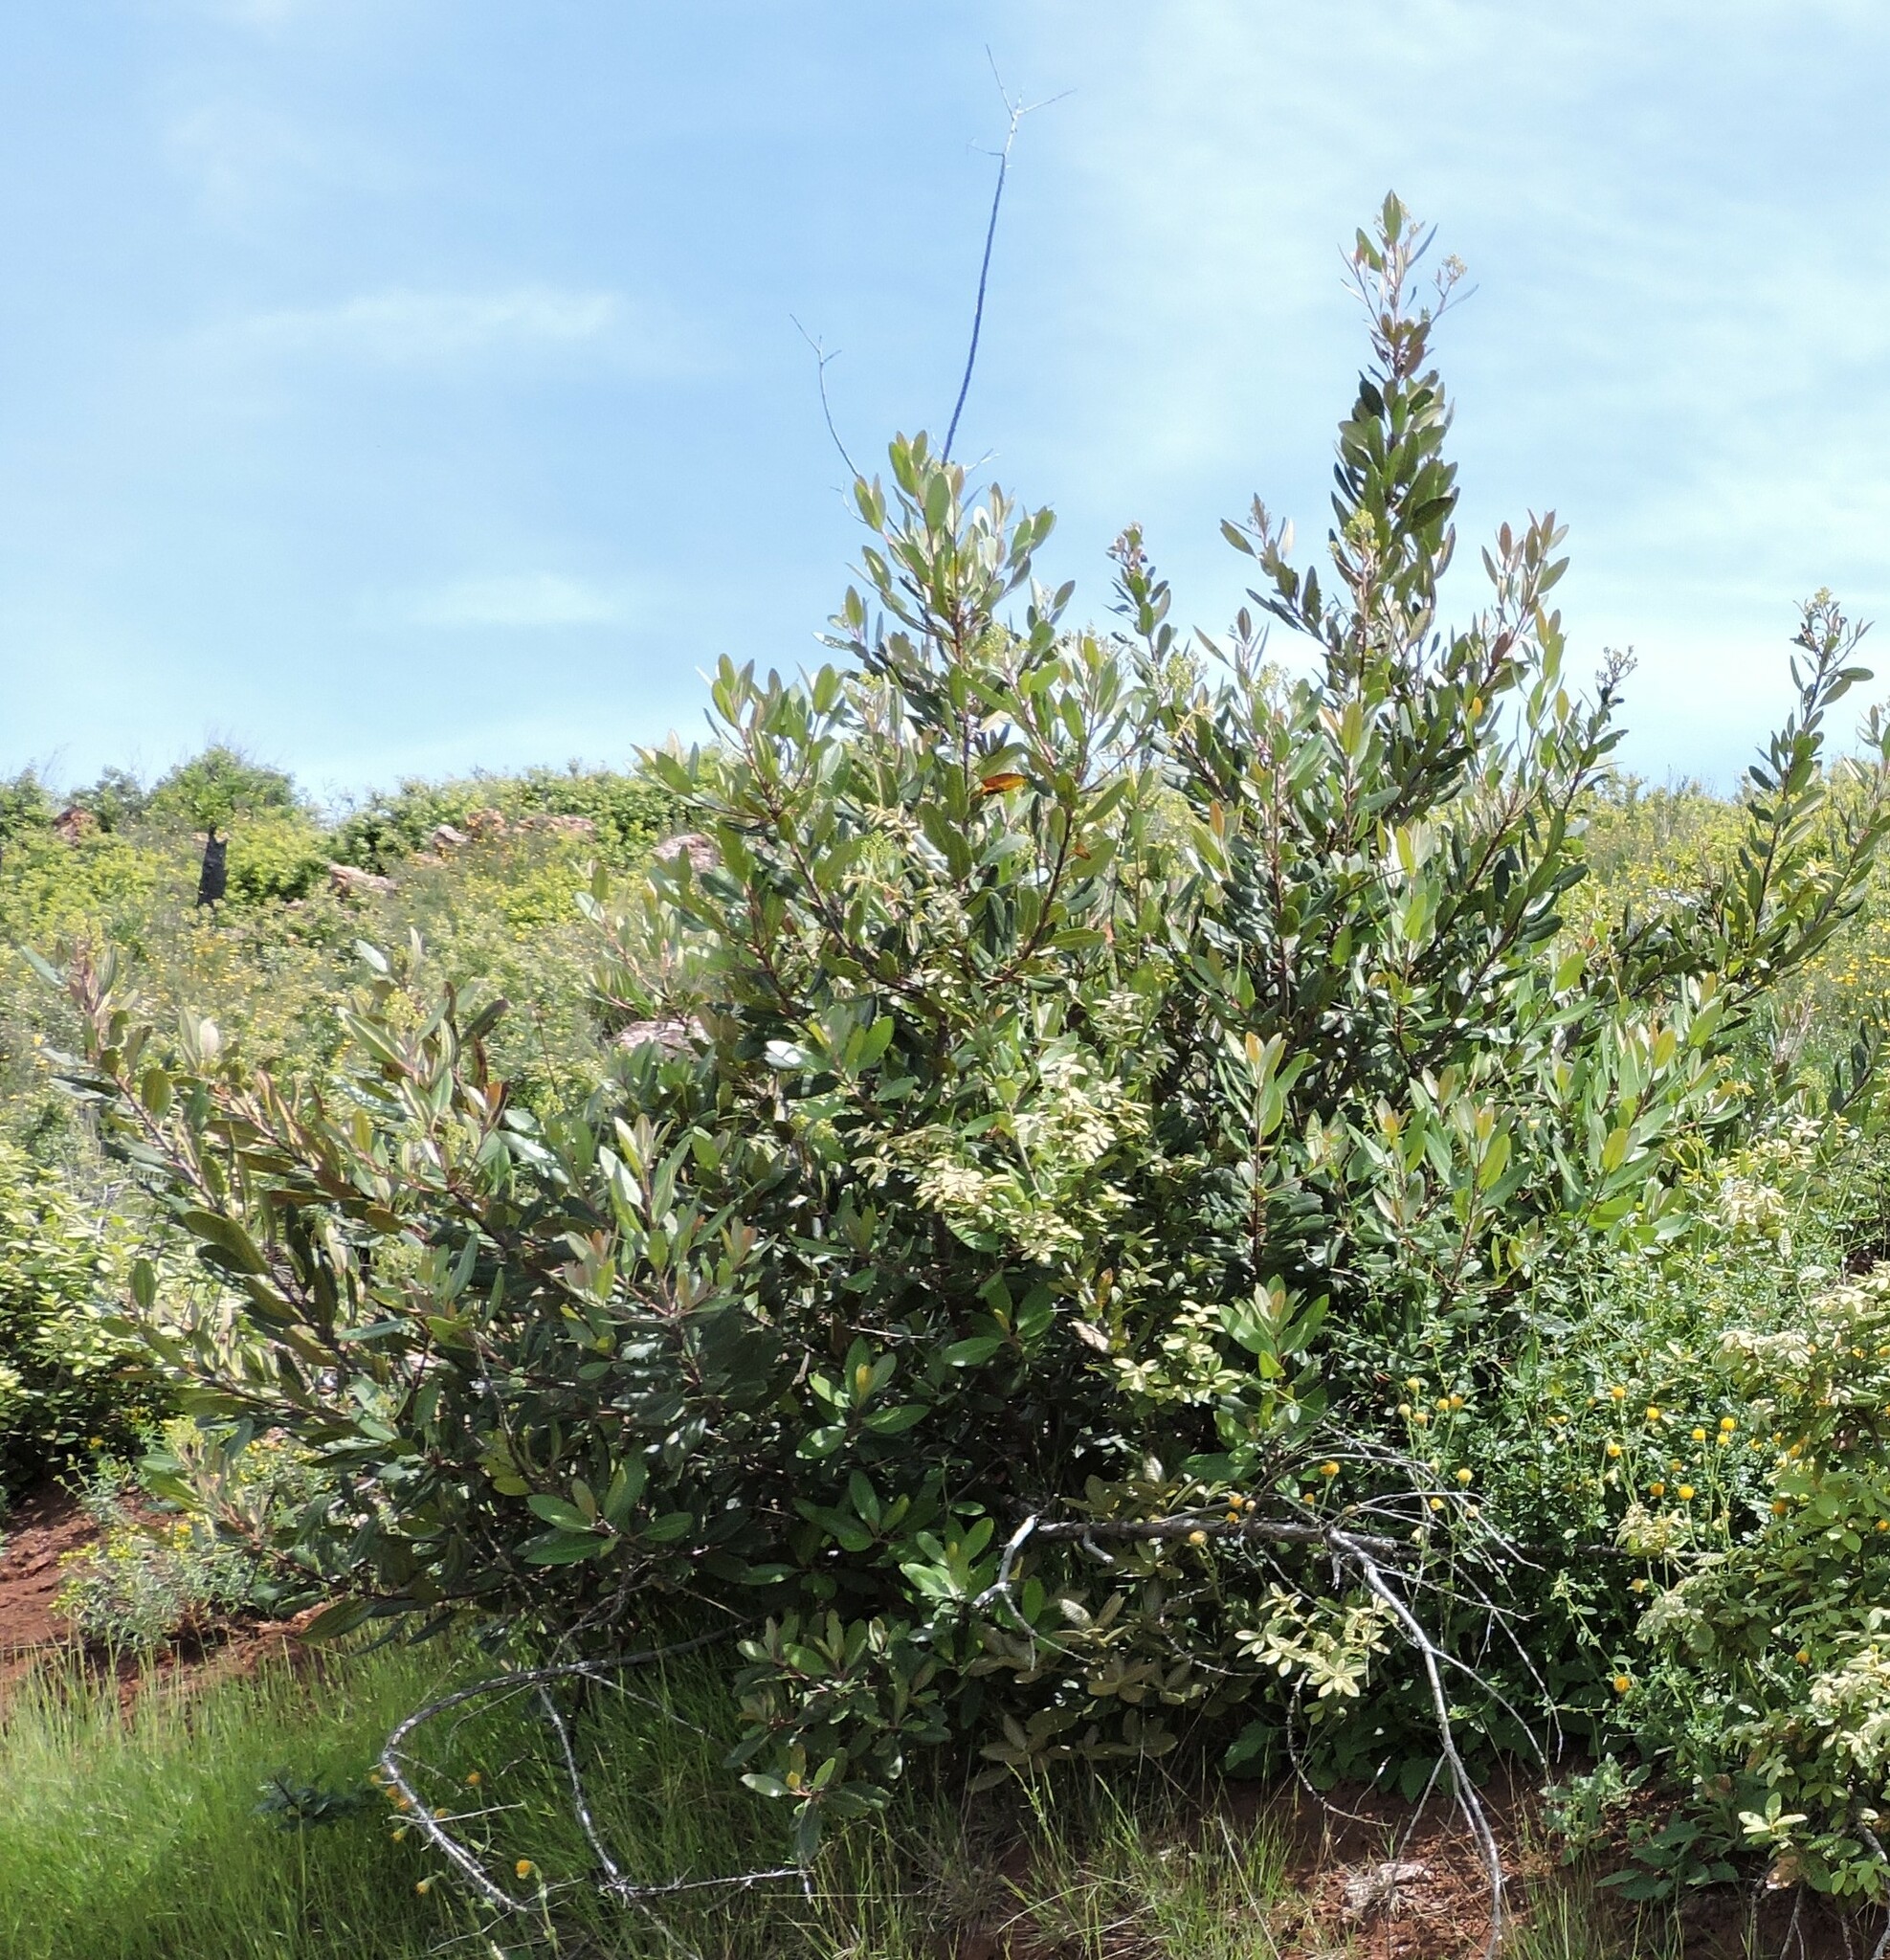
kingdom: Plantae
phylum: Tracheophyta
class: Magnoliopsida
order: Rosales
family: Rosaceae
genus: Heteromeles
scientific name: Heteromeles arbutifolia
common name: California-holly
